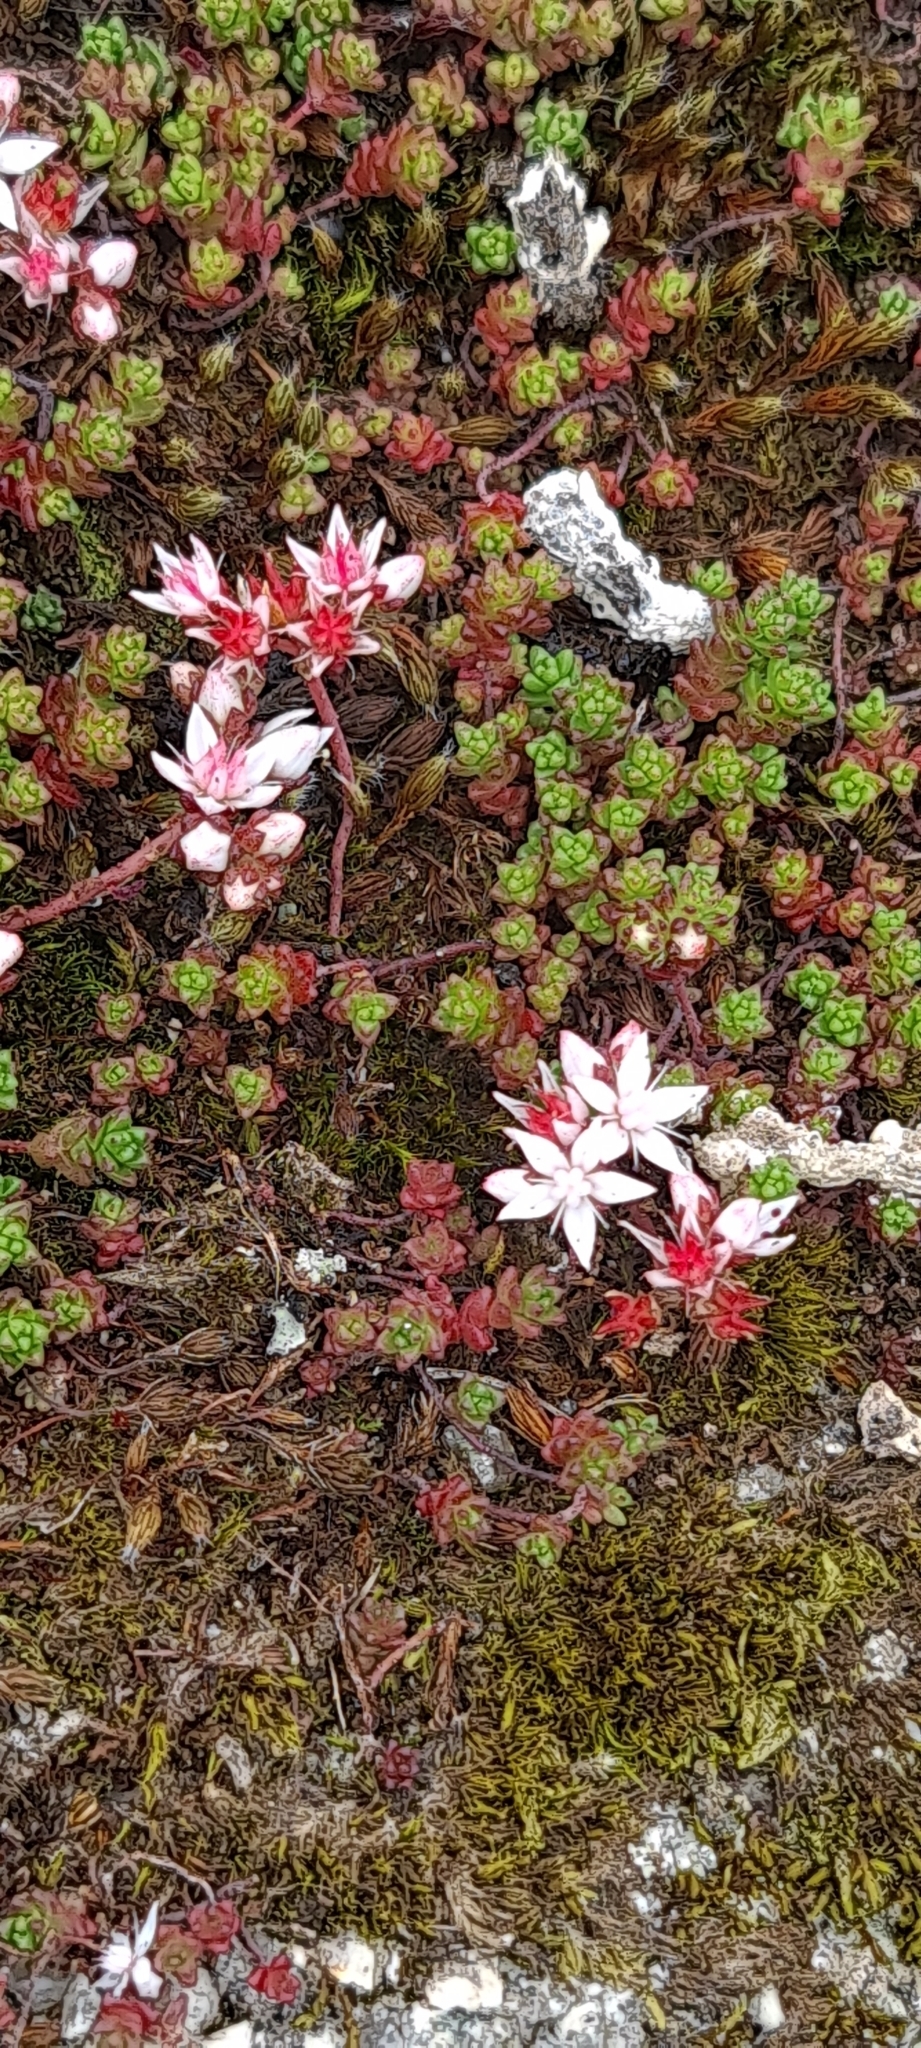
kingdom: Plantae
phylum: Tracheophyta
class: Magnoliopsida
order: Saxifragales
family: Crassulaceae
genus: Sedum
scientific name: Sedum anglicum
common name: English stonecrop
